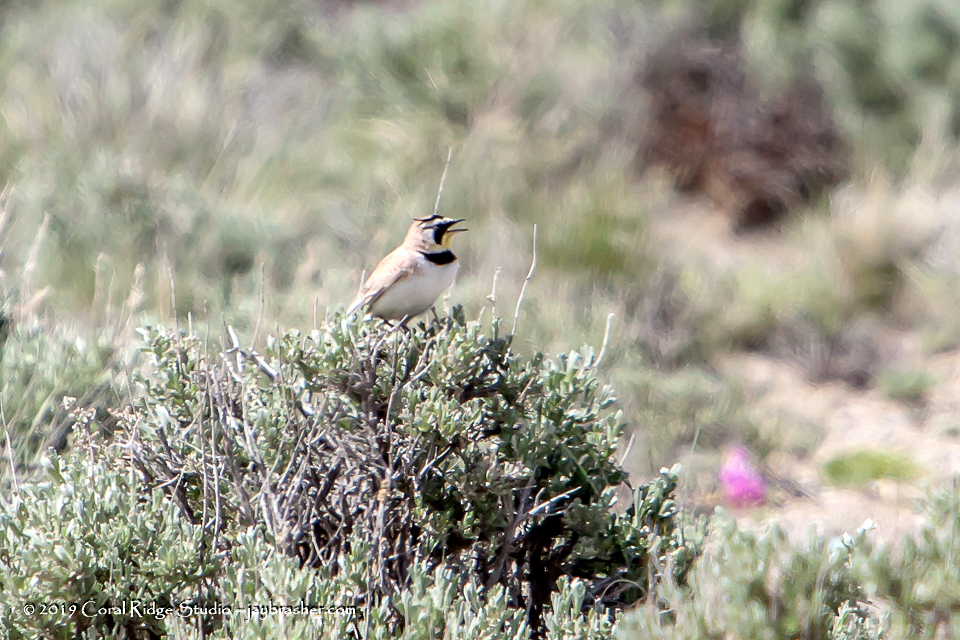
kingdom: Animalia
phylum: Chordata
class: Aves
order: Passeriformes
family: Alaudidae
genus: Eremophila
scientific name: Eremophila alpestris
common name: Horned lark
